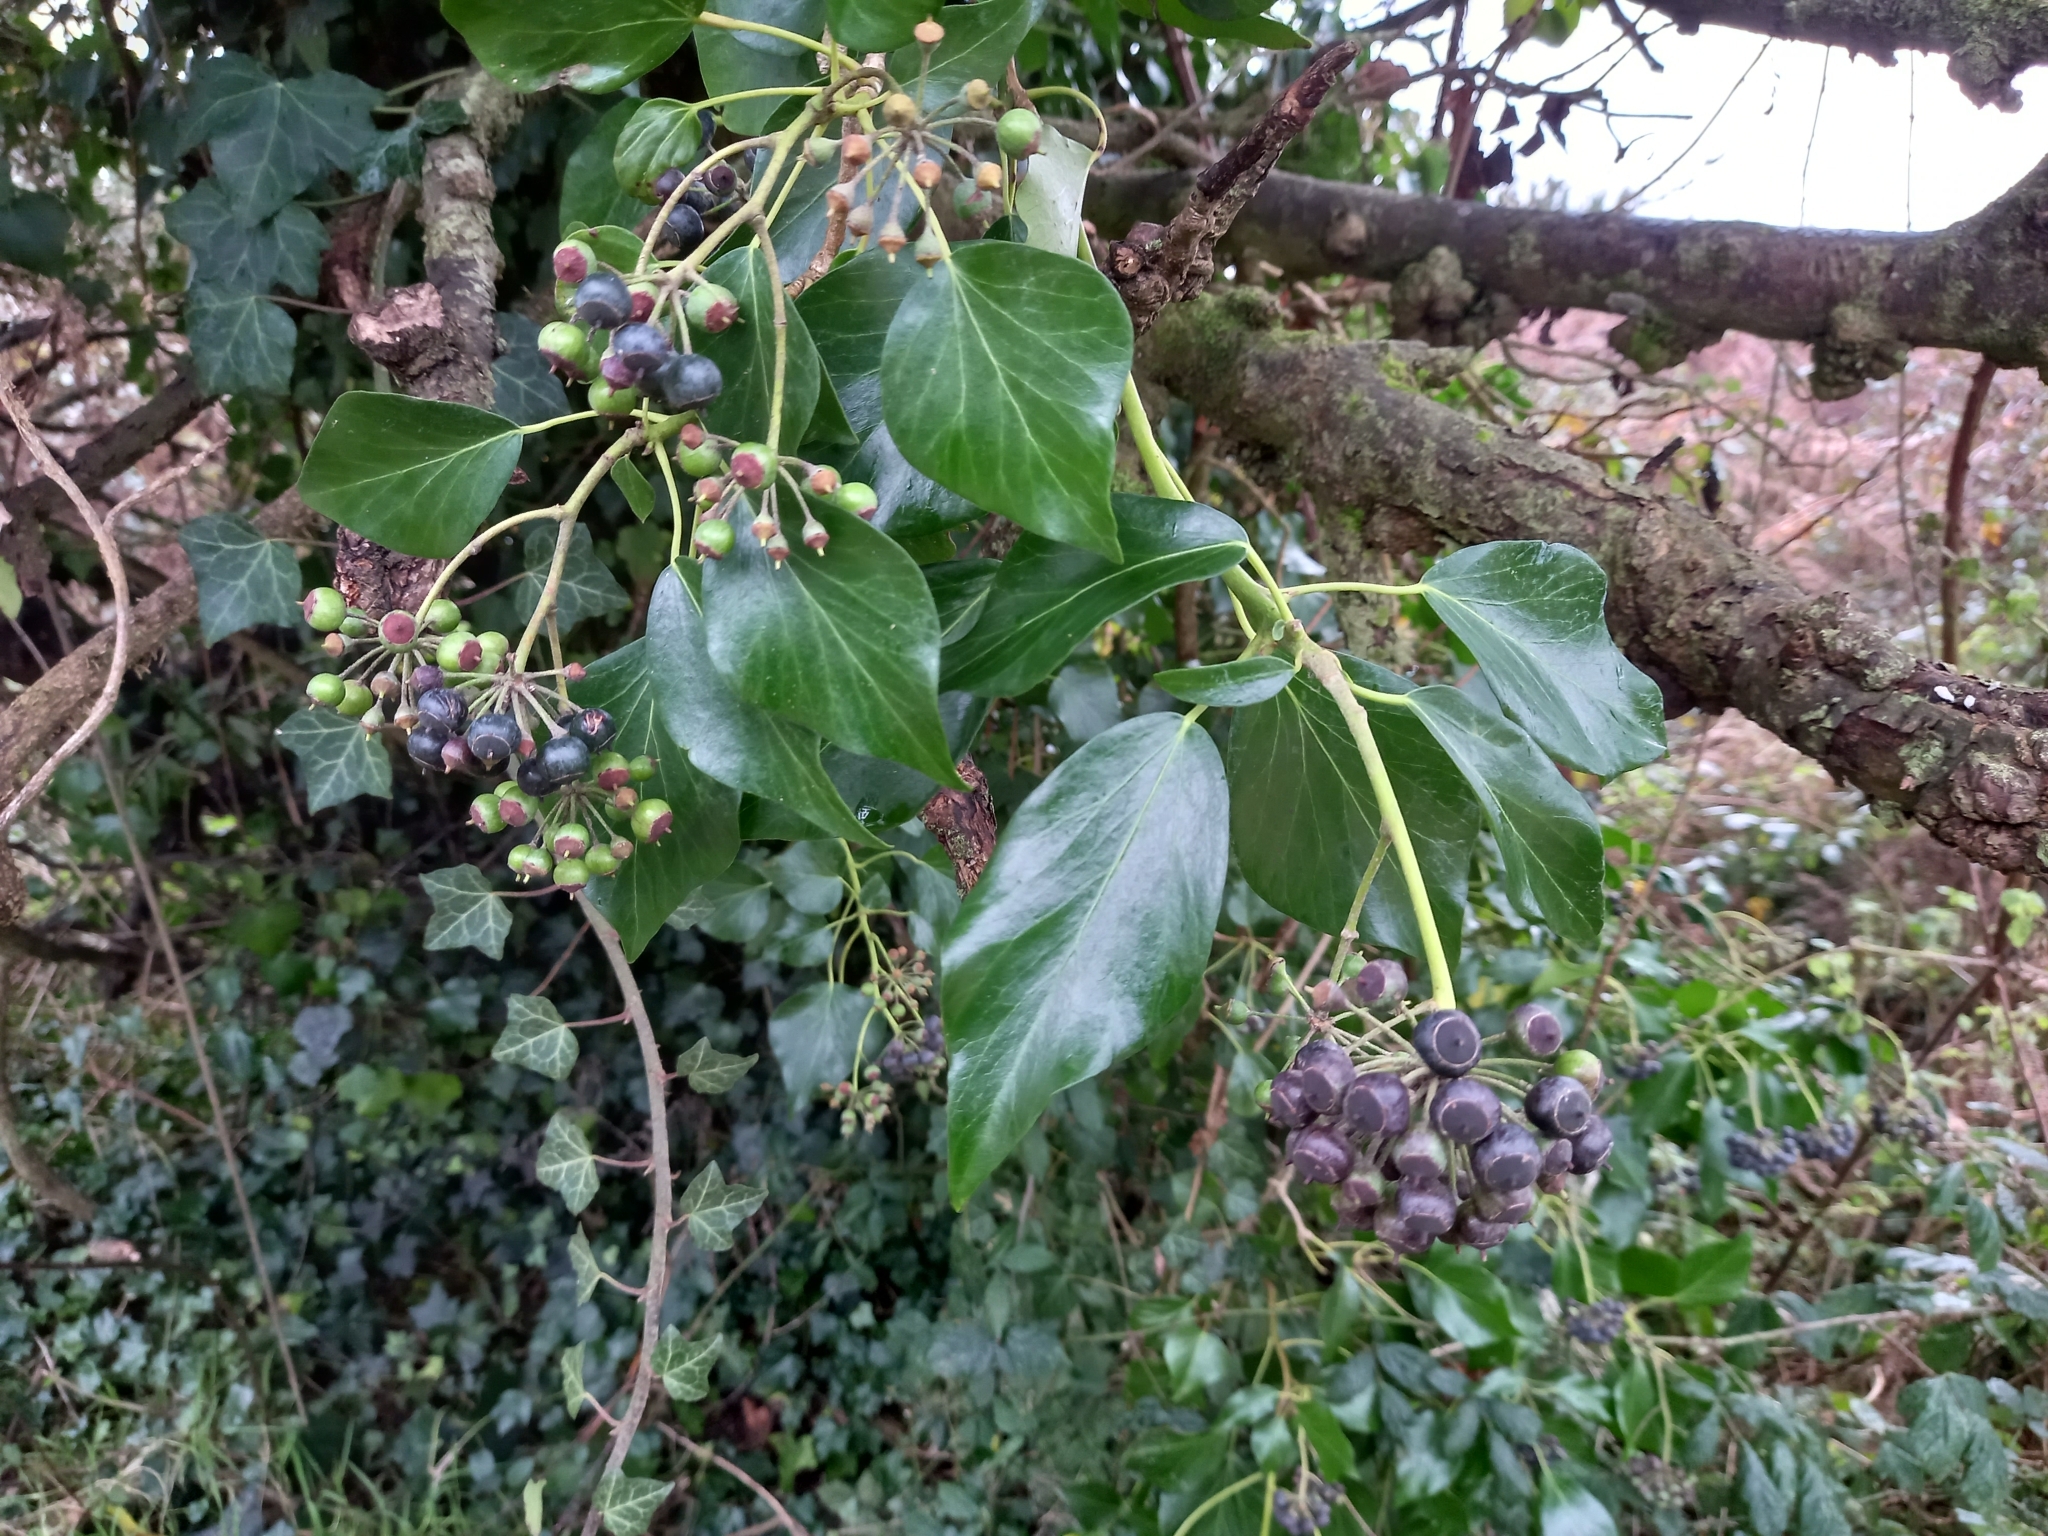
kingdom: Plantae
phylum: Tracheophyta
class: Magnoliopsida
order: Apiales
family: Araliaceae
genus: Hedera
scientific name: Hedera helix
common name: Ivy
